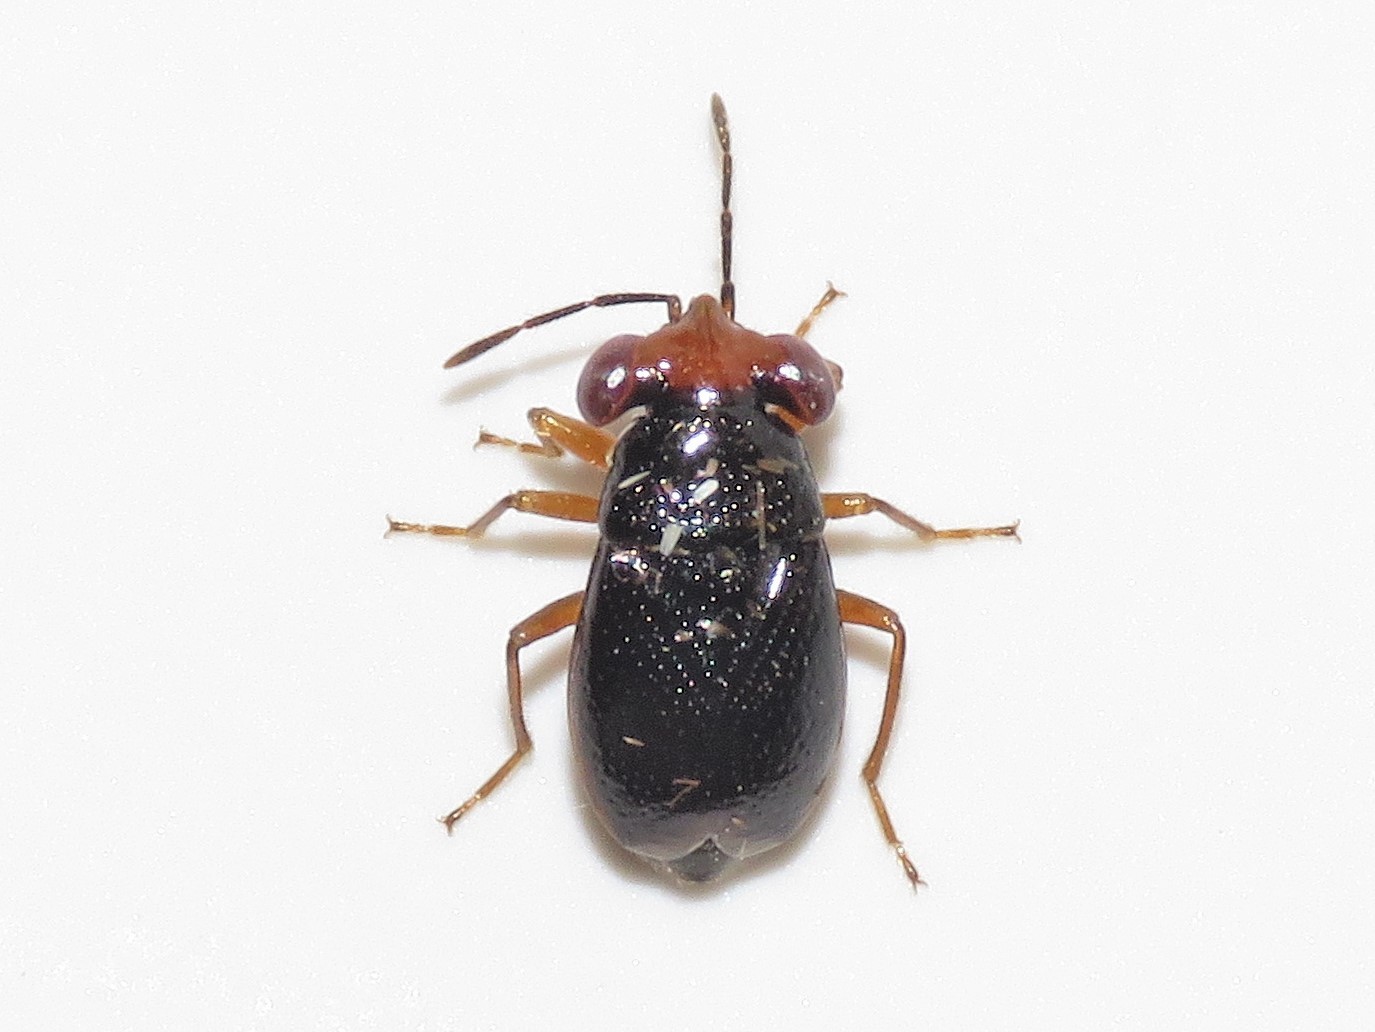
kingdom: Animalia
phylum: Arthropoda
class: Insecta
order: Hemiptera
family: Geocoridae
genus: Isthmocoris
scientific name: Isthmocoris piceus
